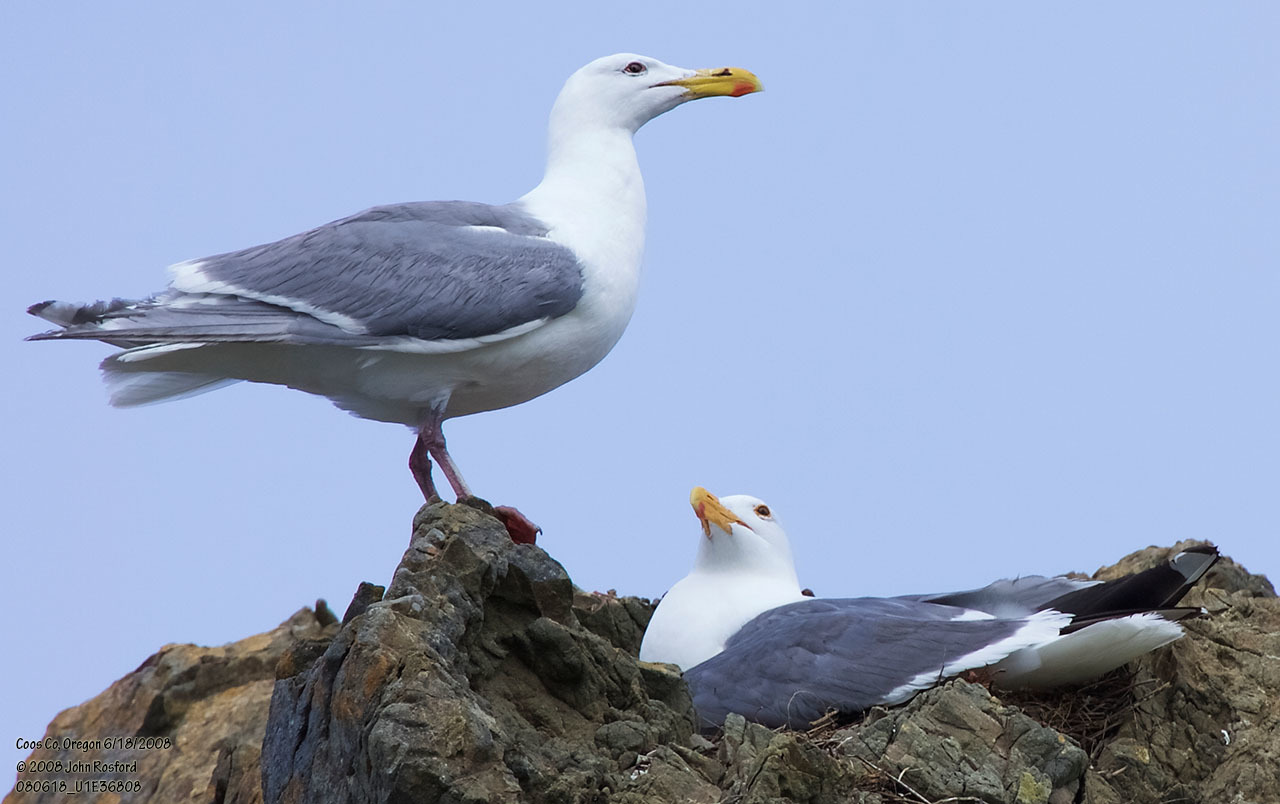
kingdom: Animalia
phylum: Chordata
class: Aves
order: Charadriiformes
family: Laridae
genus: Larus
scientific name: Larus
